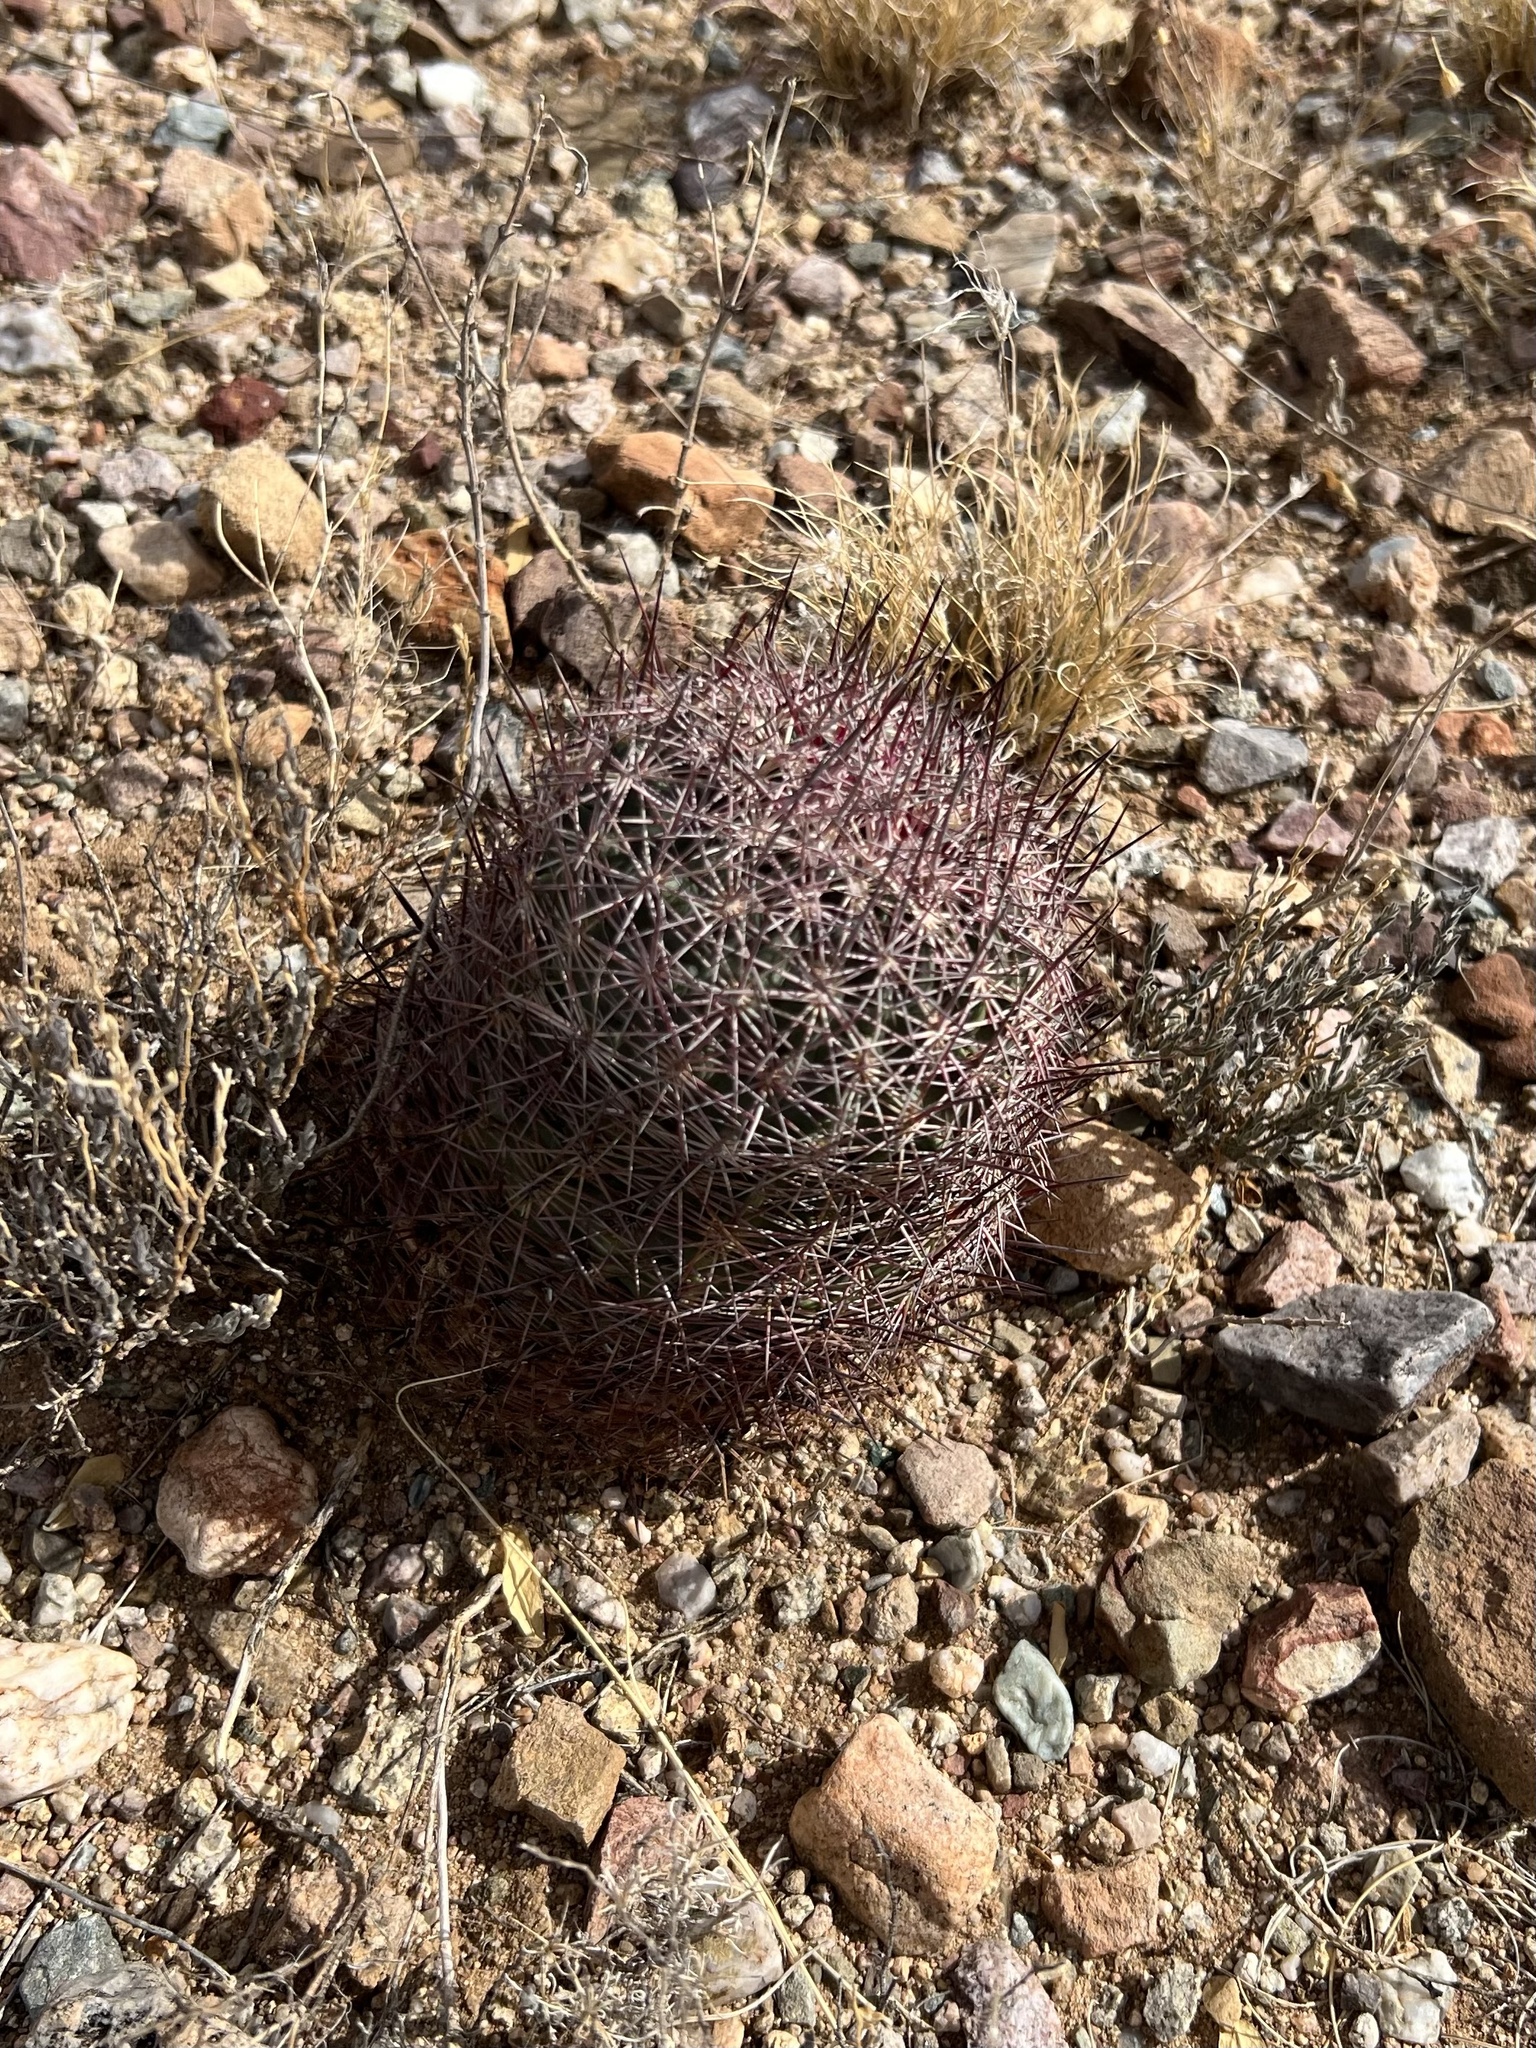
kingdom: Plantae
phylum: Tracheophyta
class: Magnoliopsida
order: Caryophyllales
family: Cactaceae
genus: Sclerocactus
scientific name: Sclerocactus johnsonii
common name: Eight-spine fishhook cactus
